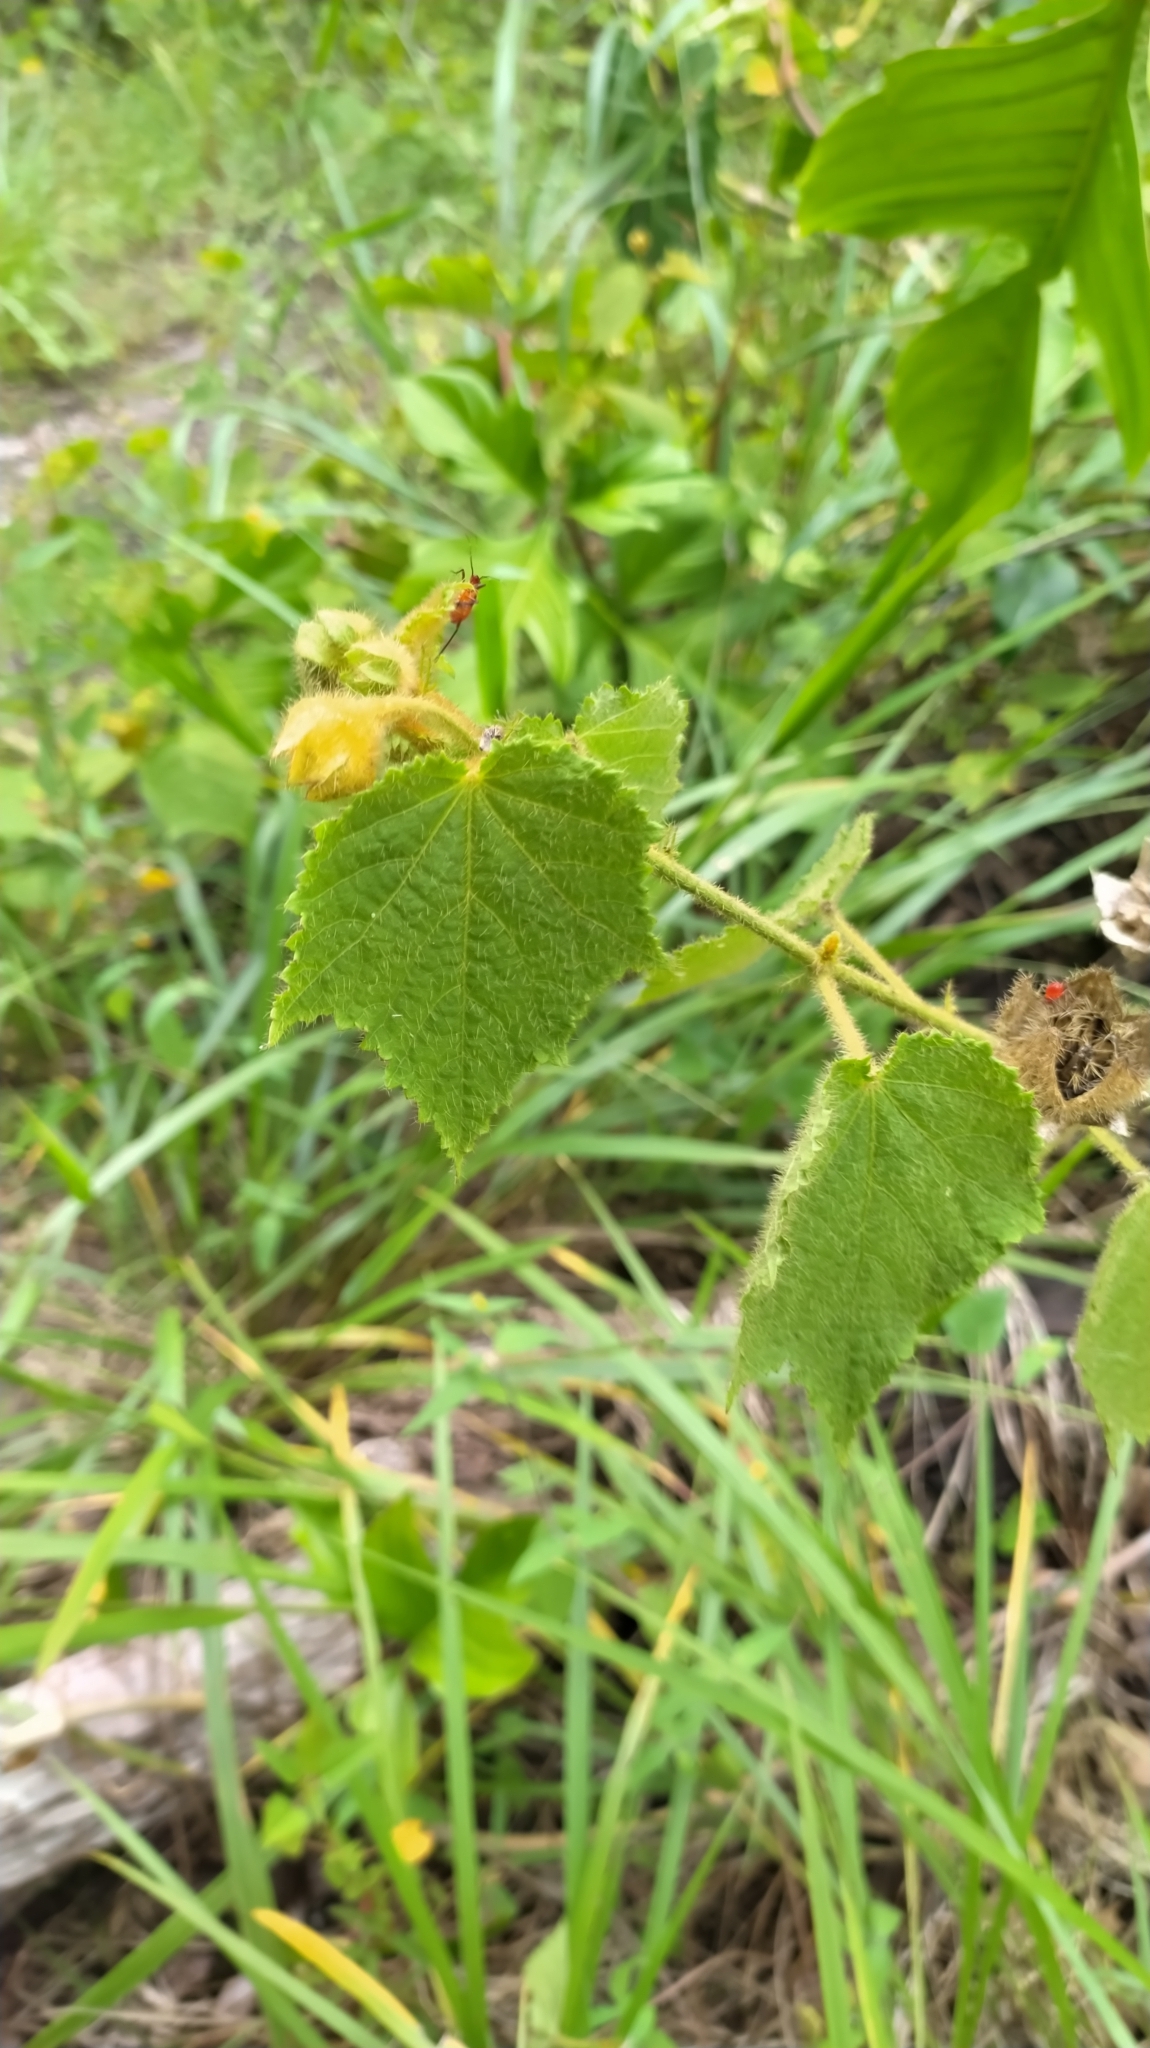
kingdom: Plantae
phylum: Tracheophyta
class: Magnoliopsida
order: Malvales
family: Malvaceae
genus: Hibiscus
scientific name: Hibiscus verbasciformis
